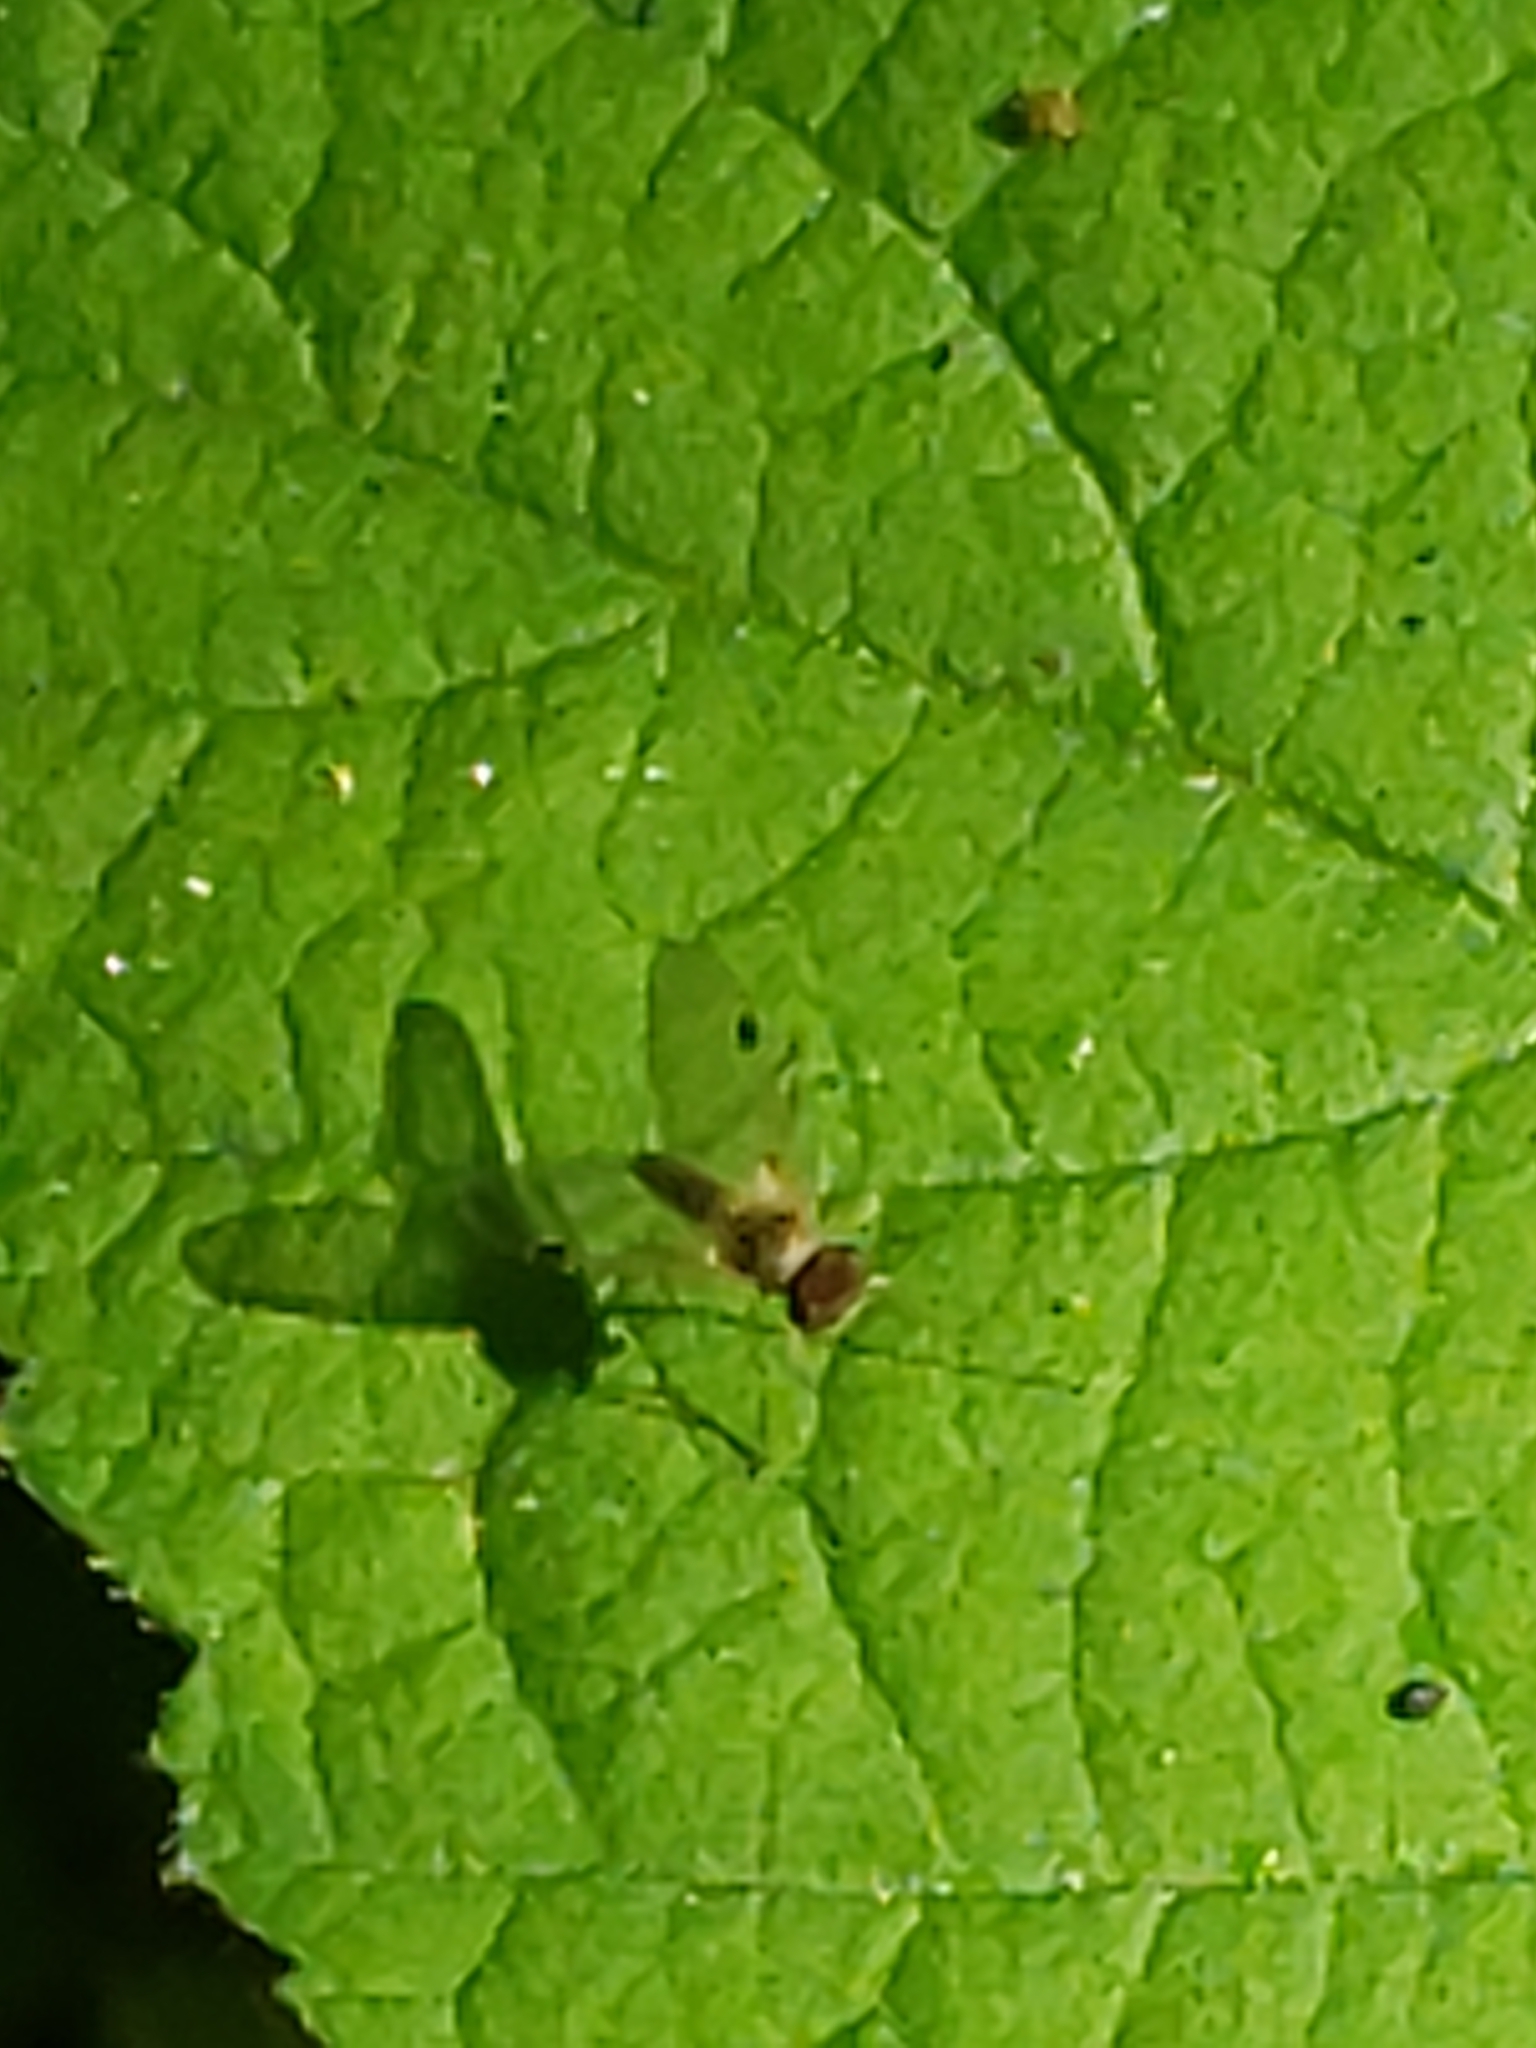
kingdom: Animalia
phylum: Arthropoda
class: Insecta
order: Diptera
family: Rhagionidae
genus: Chrysopilus
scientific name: Chrysopilus modestus
